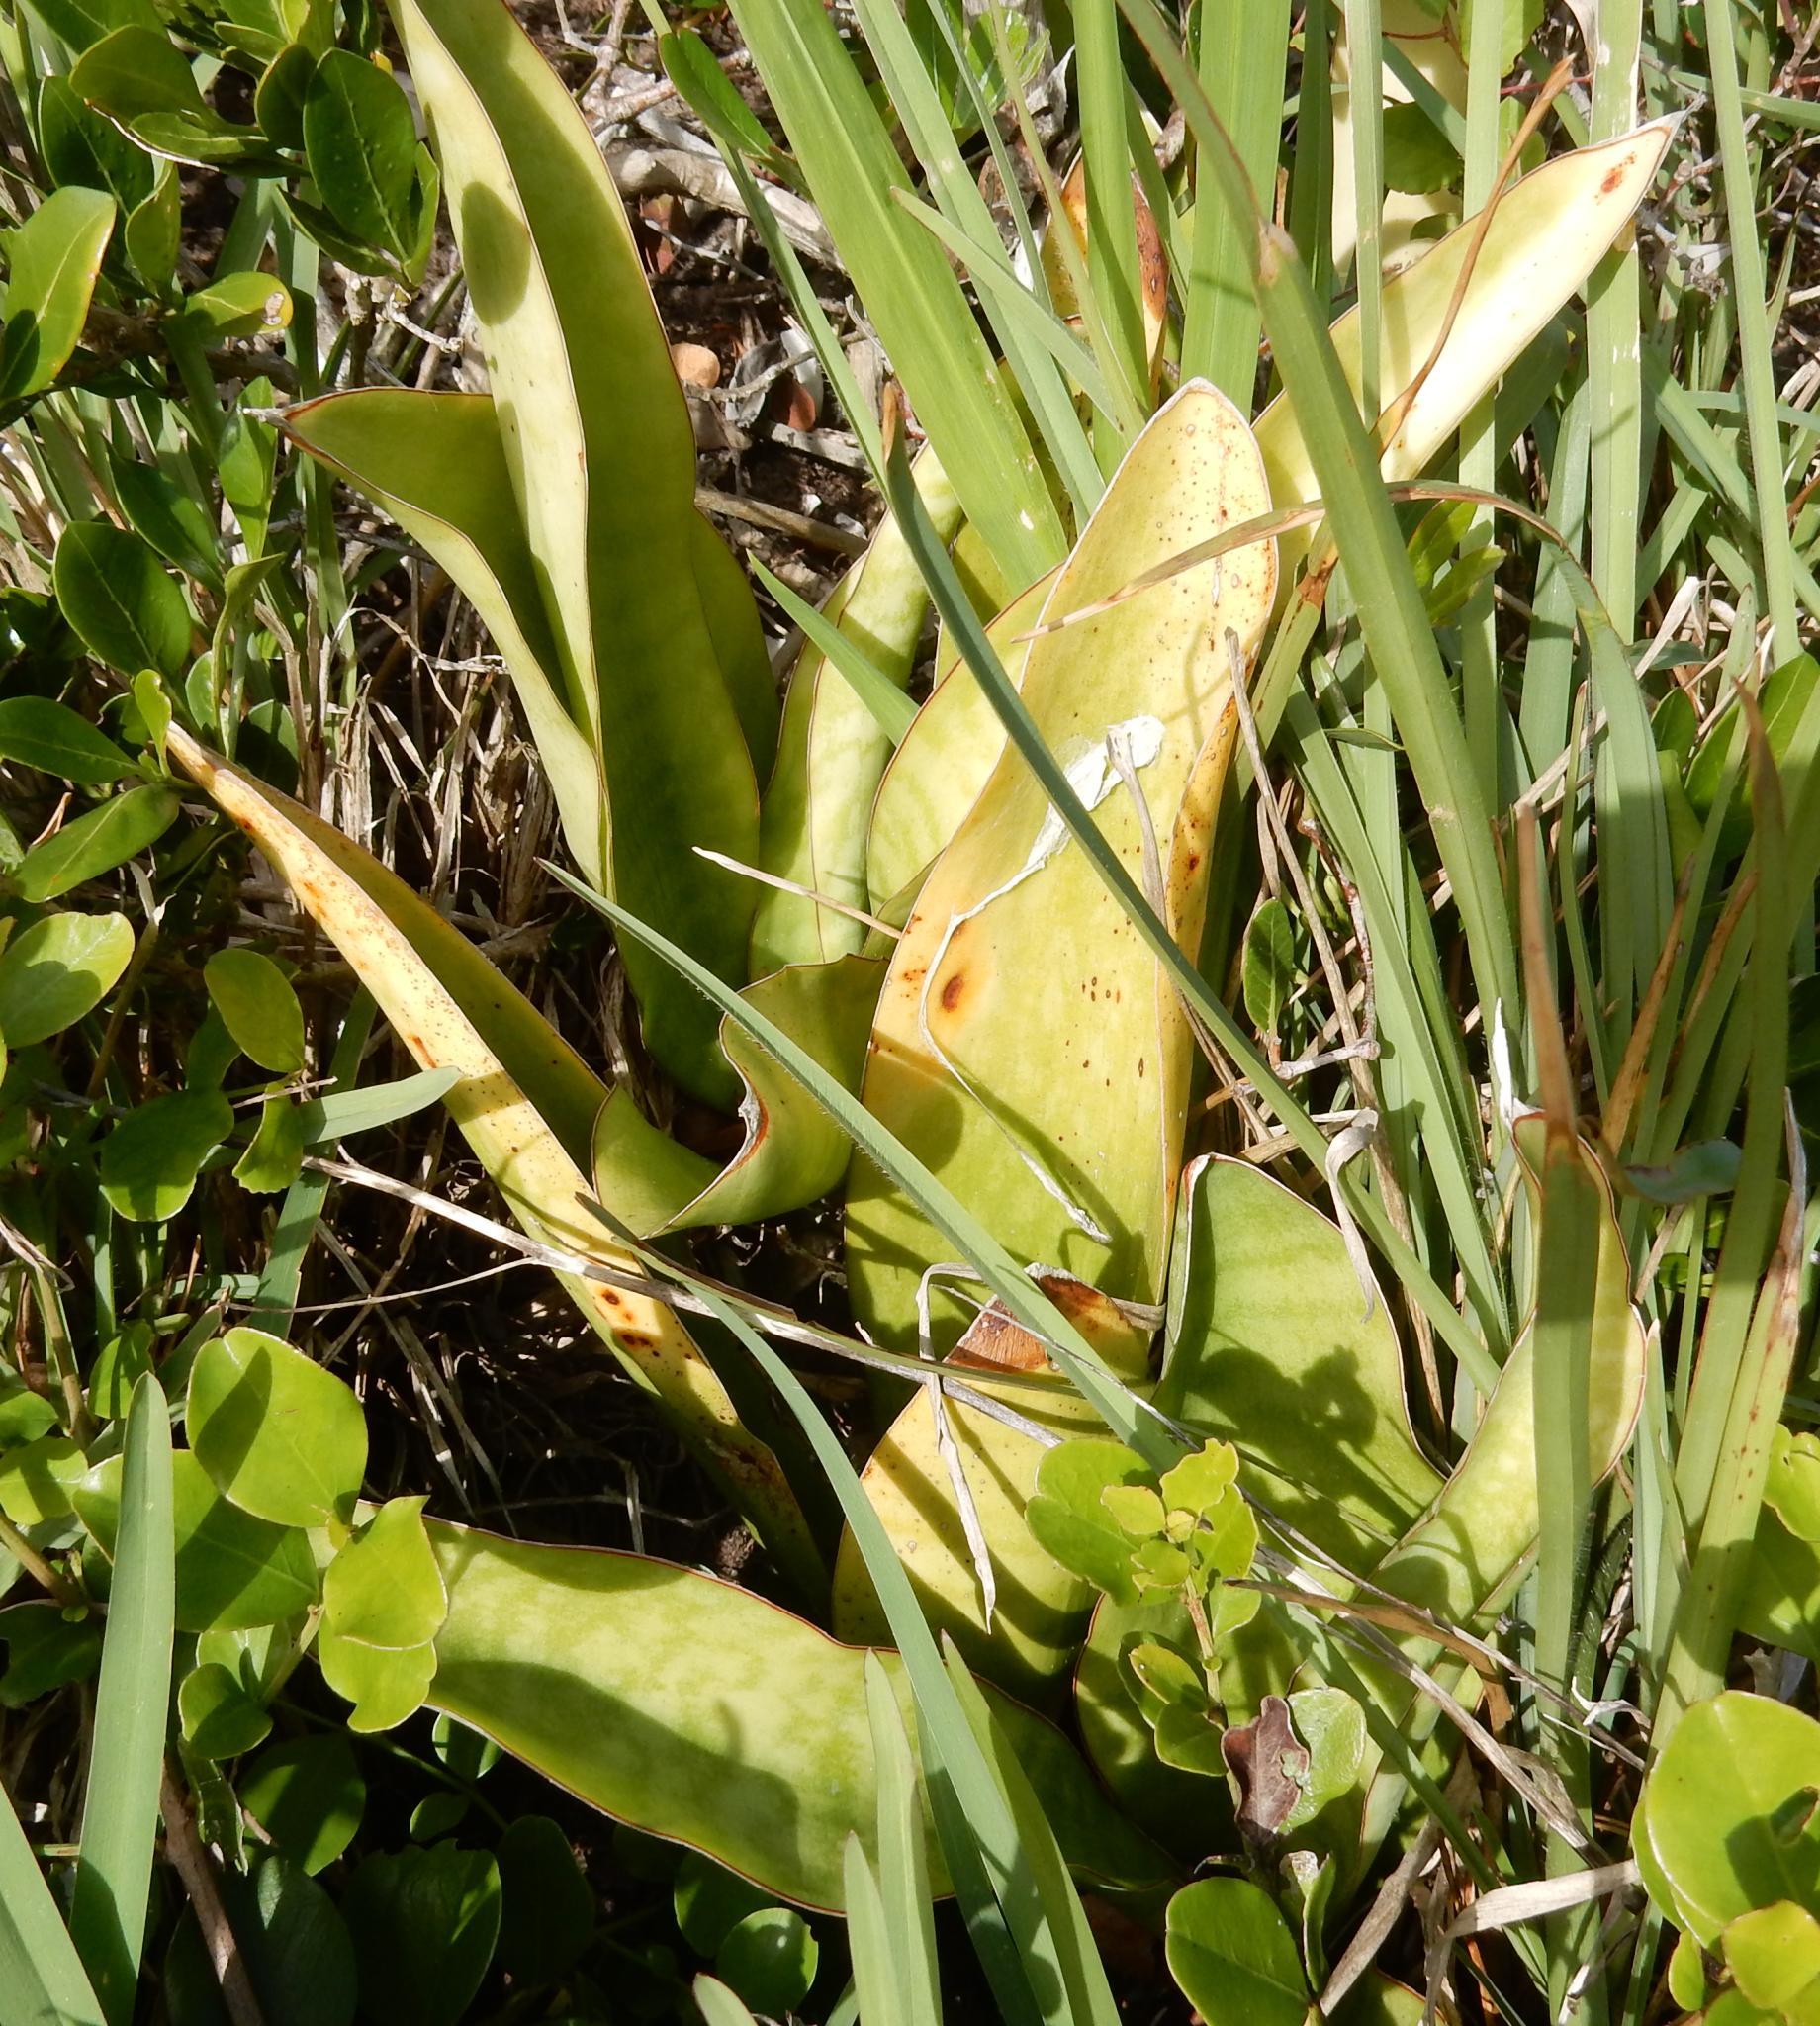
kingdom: Plantae
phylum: Tracheophyta
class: Liliopsida
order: Asparagales
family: Asparagaceae
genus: Dracaena
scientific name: Dracaena hyacinthoides
